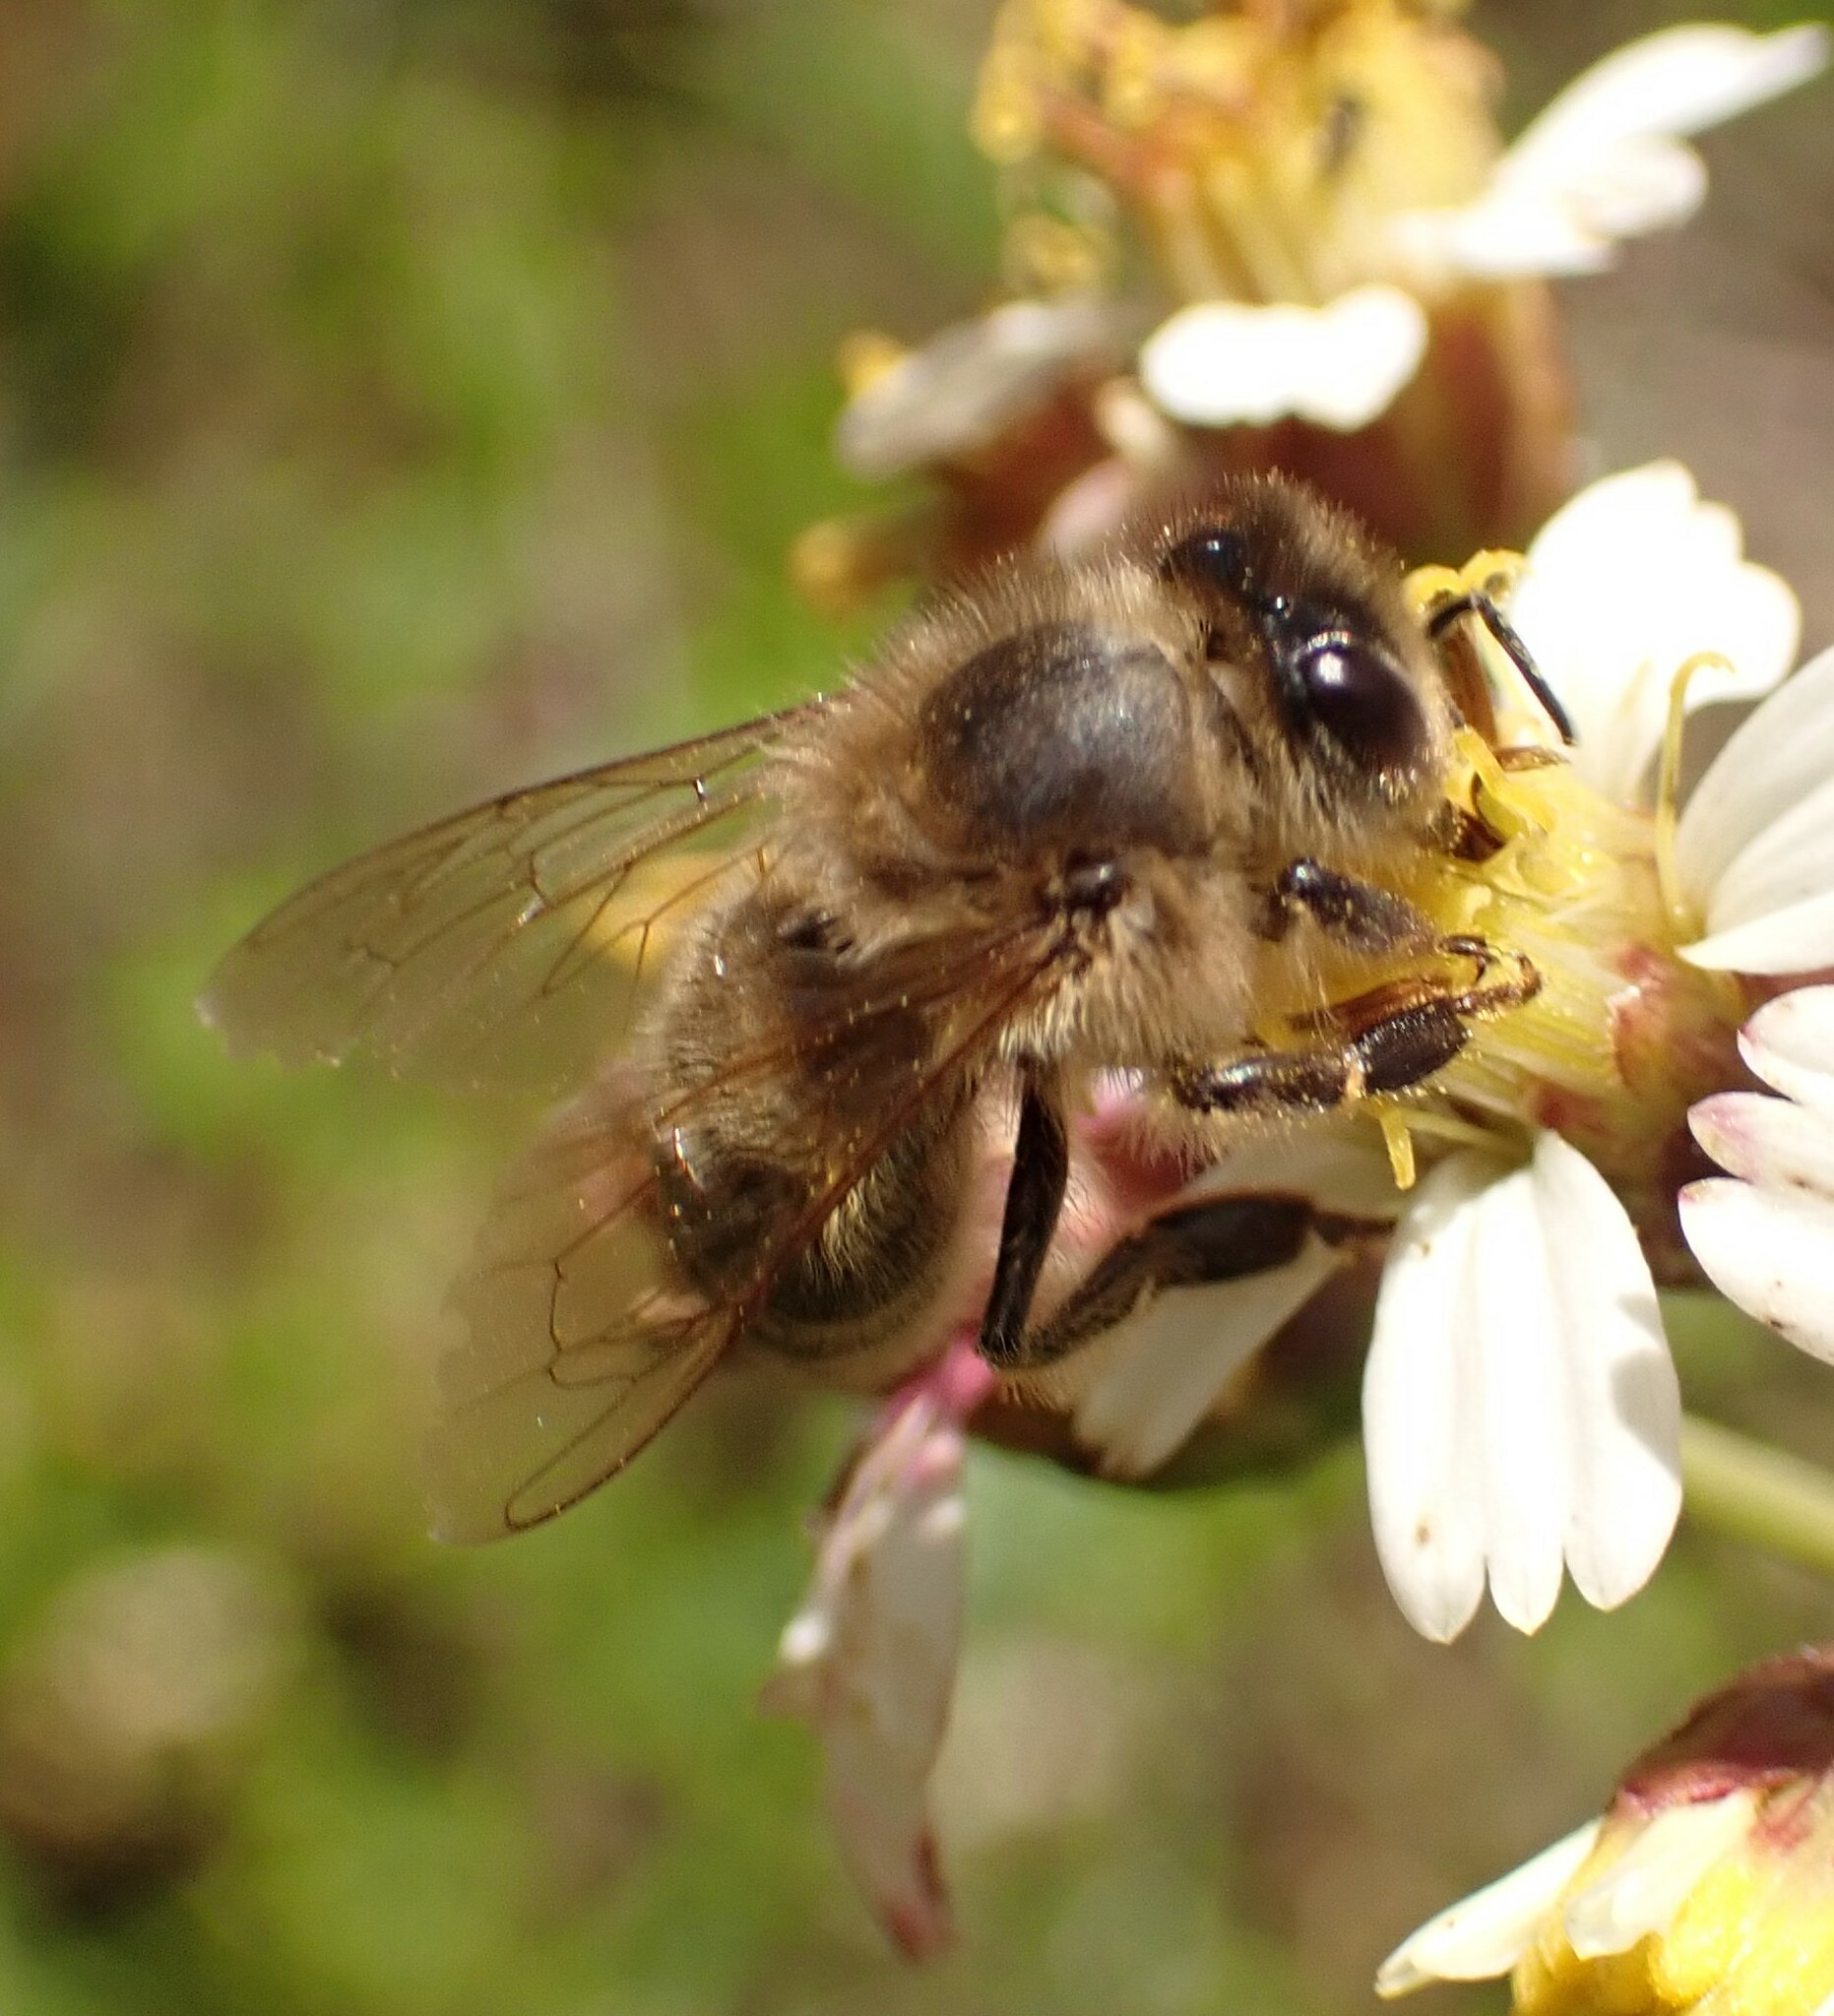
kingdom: Animalia
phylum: Arthropoda
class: Insecta
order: Hymenoptera
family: Apidae
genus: Apis
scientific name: Apis mellifera
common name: Honey bee
